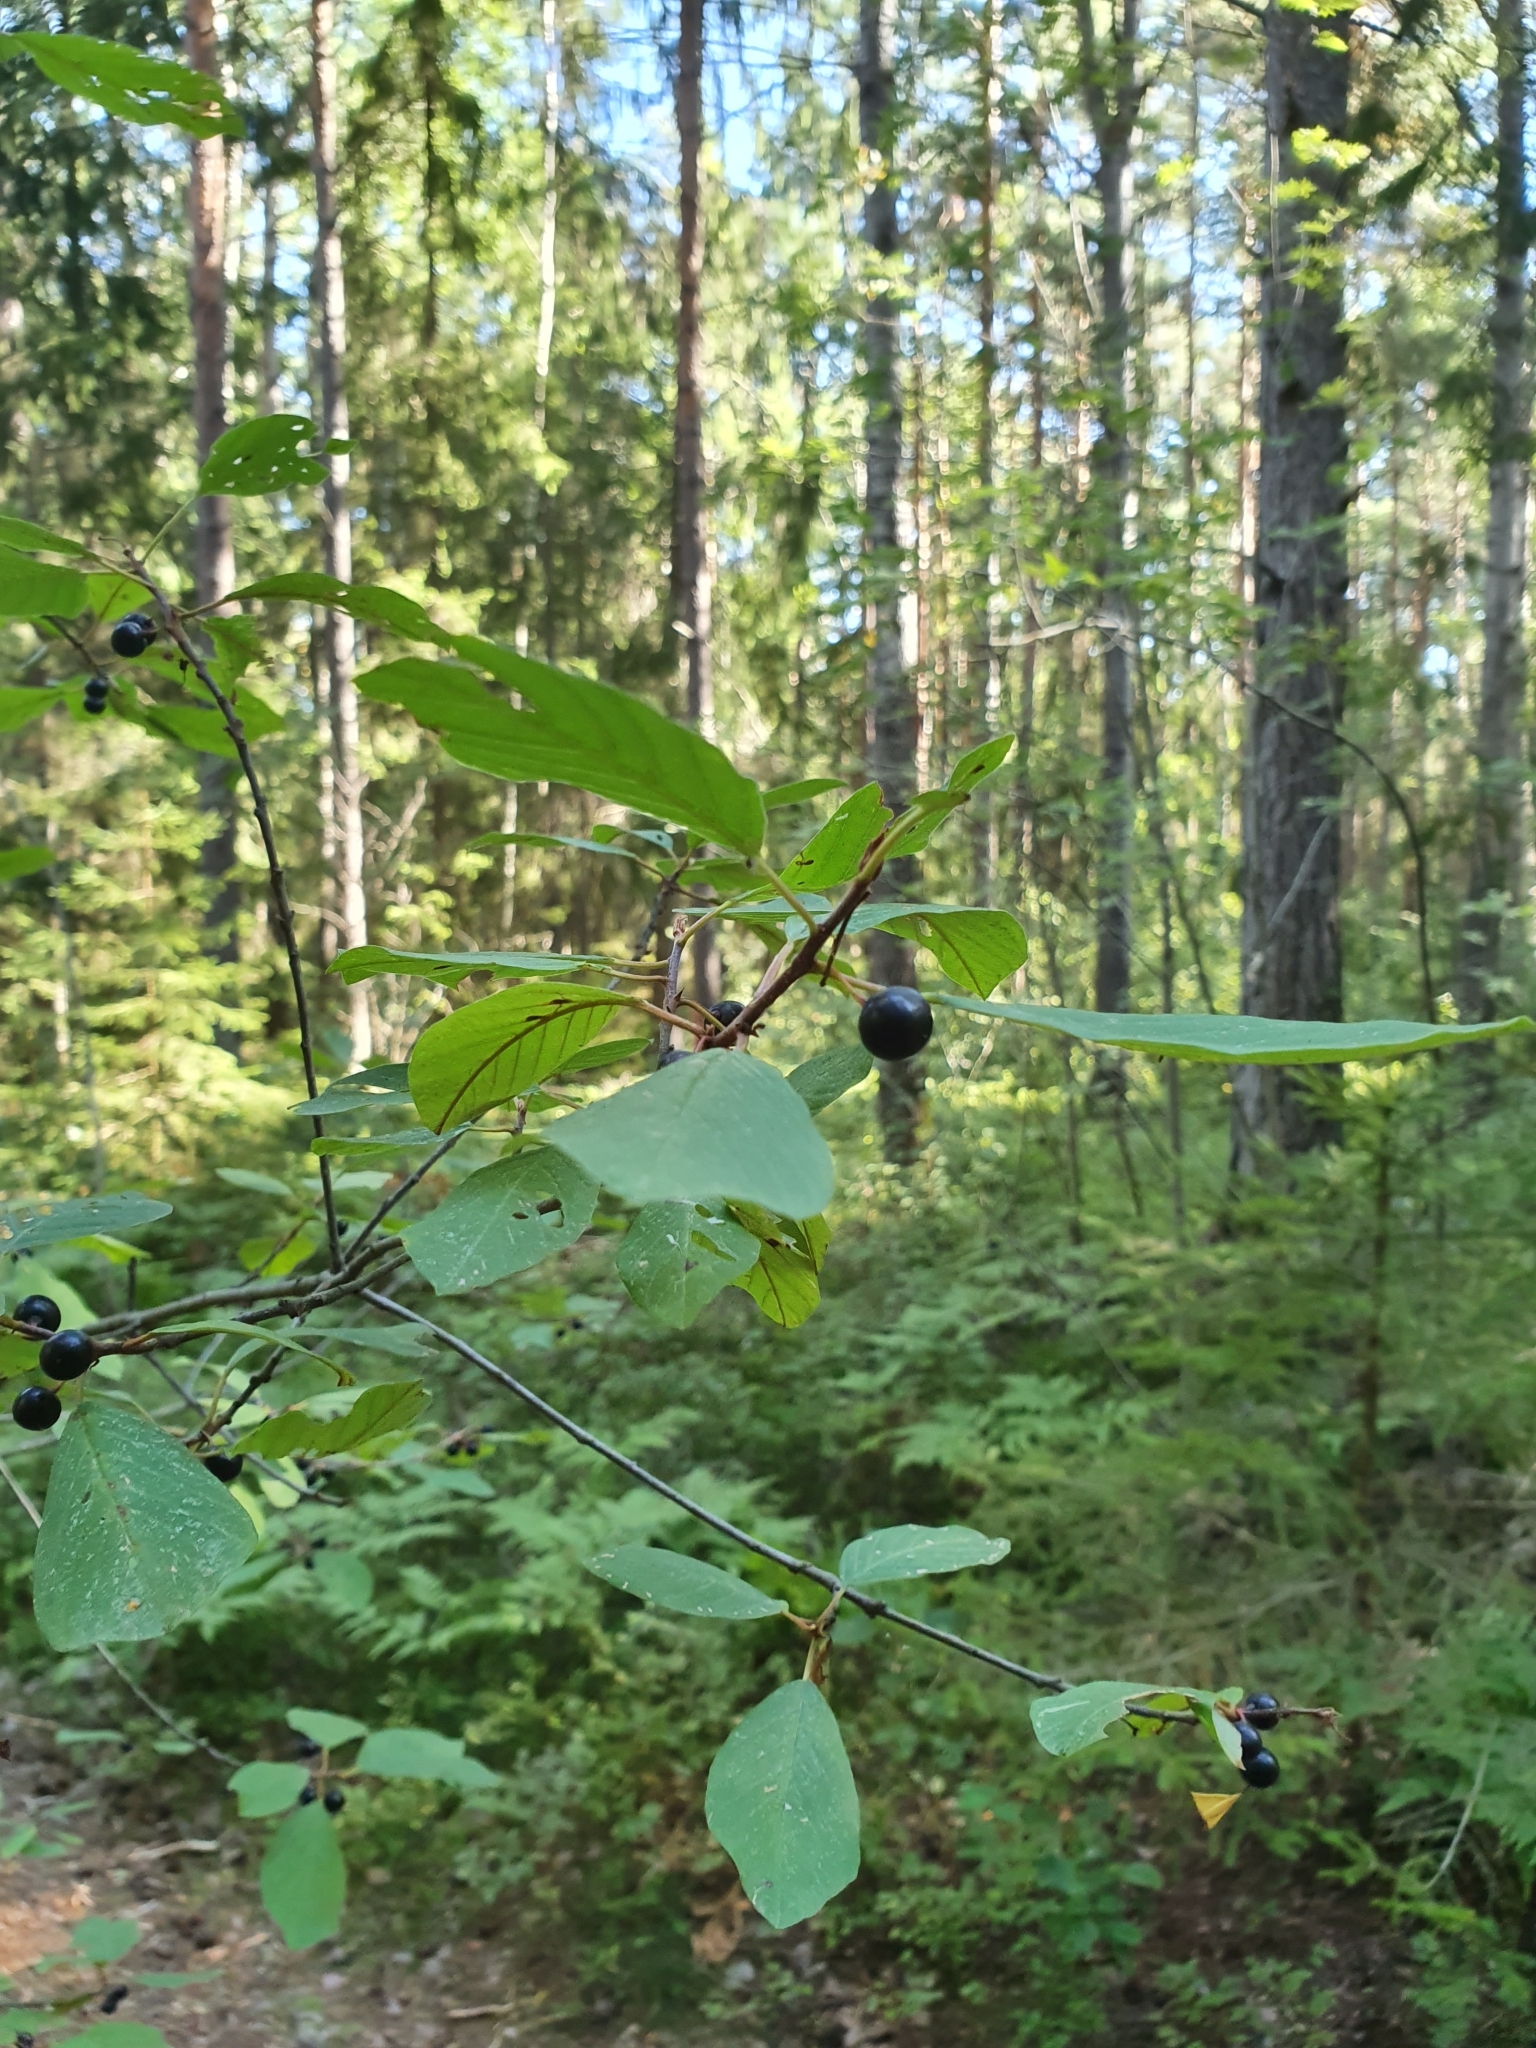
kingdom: Plantae
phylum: Tracheophyta
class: Magnoliopsida
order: Rosales
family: Rhamnaceae
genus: Frangula
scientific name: Frangula alnus
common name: Alder buckthorn
